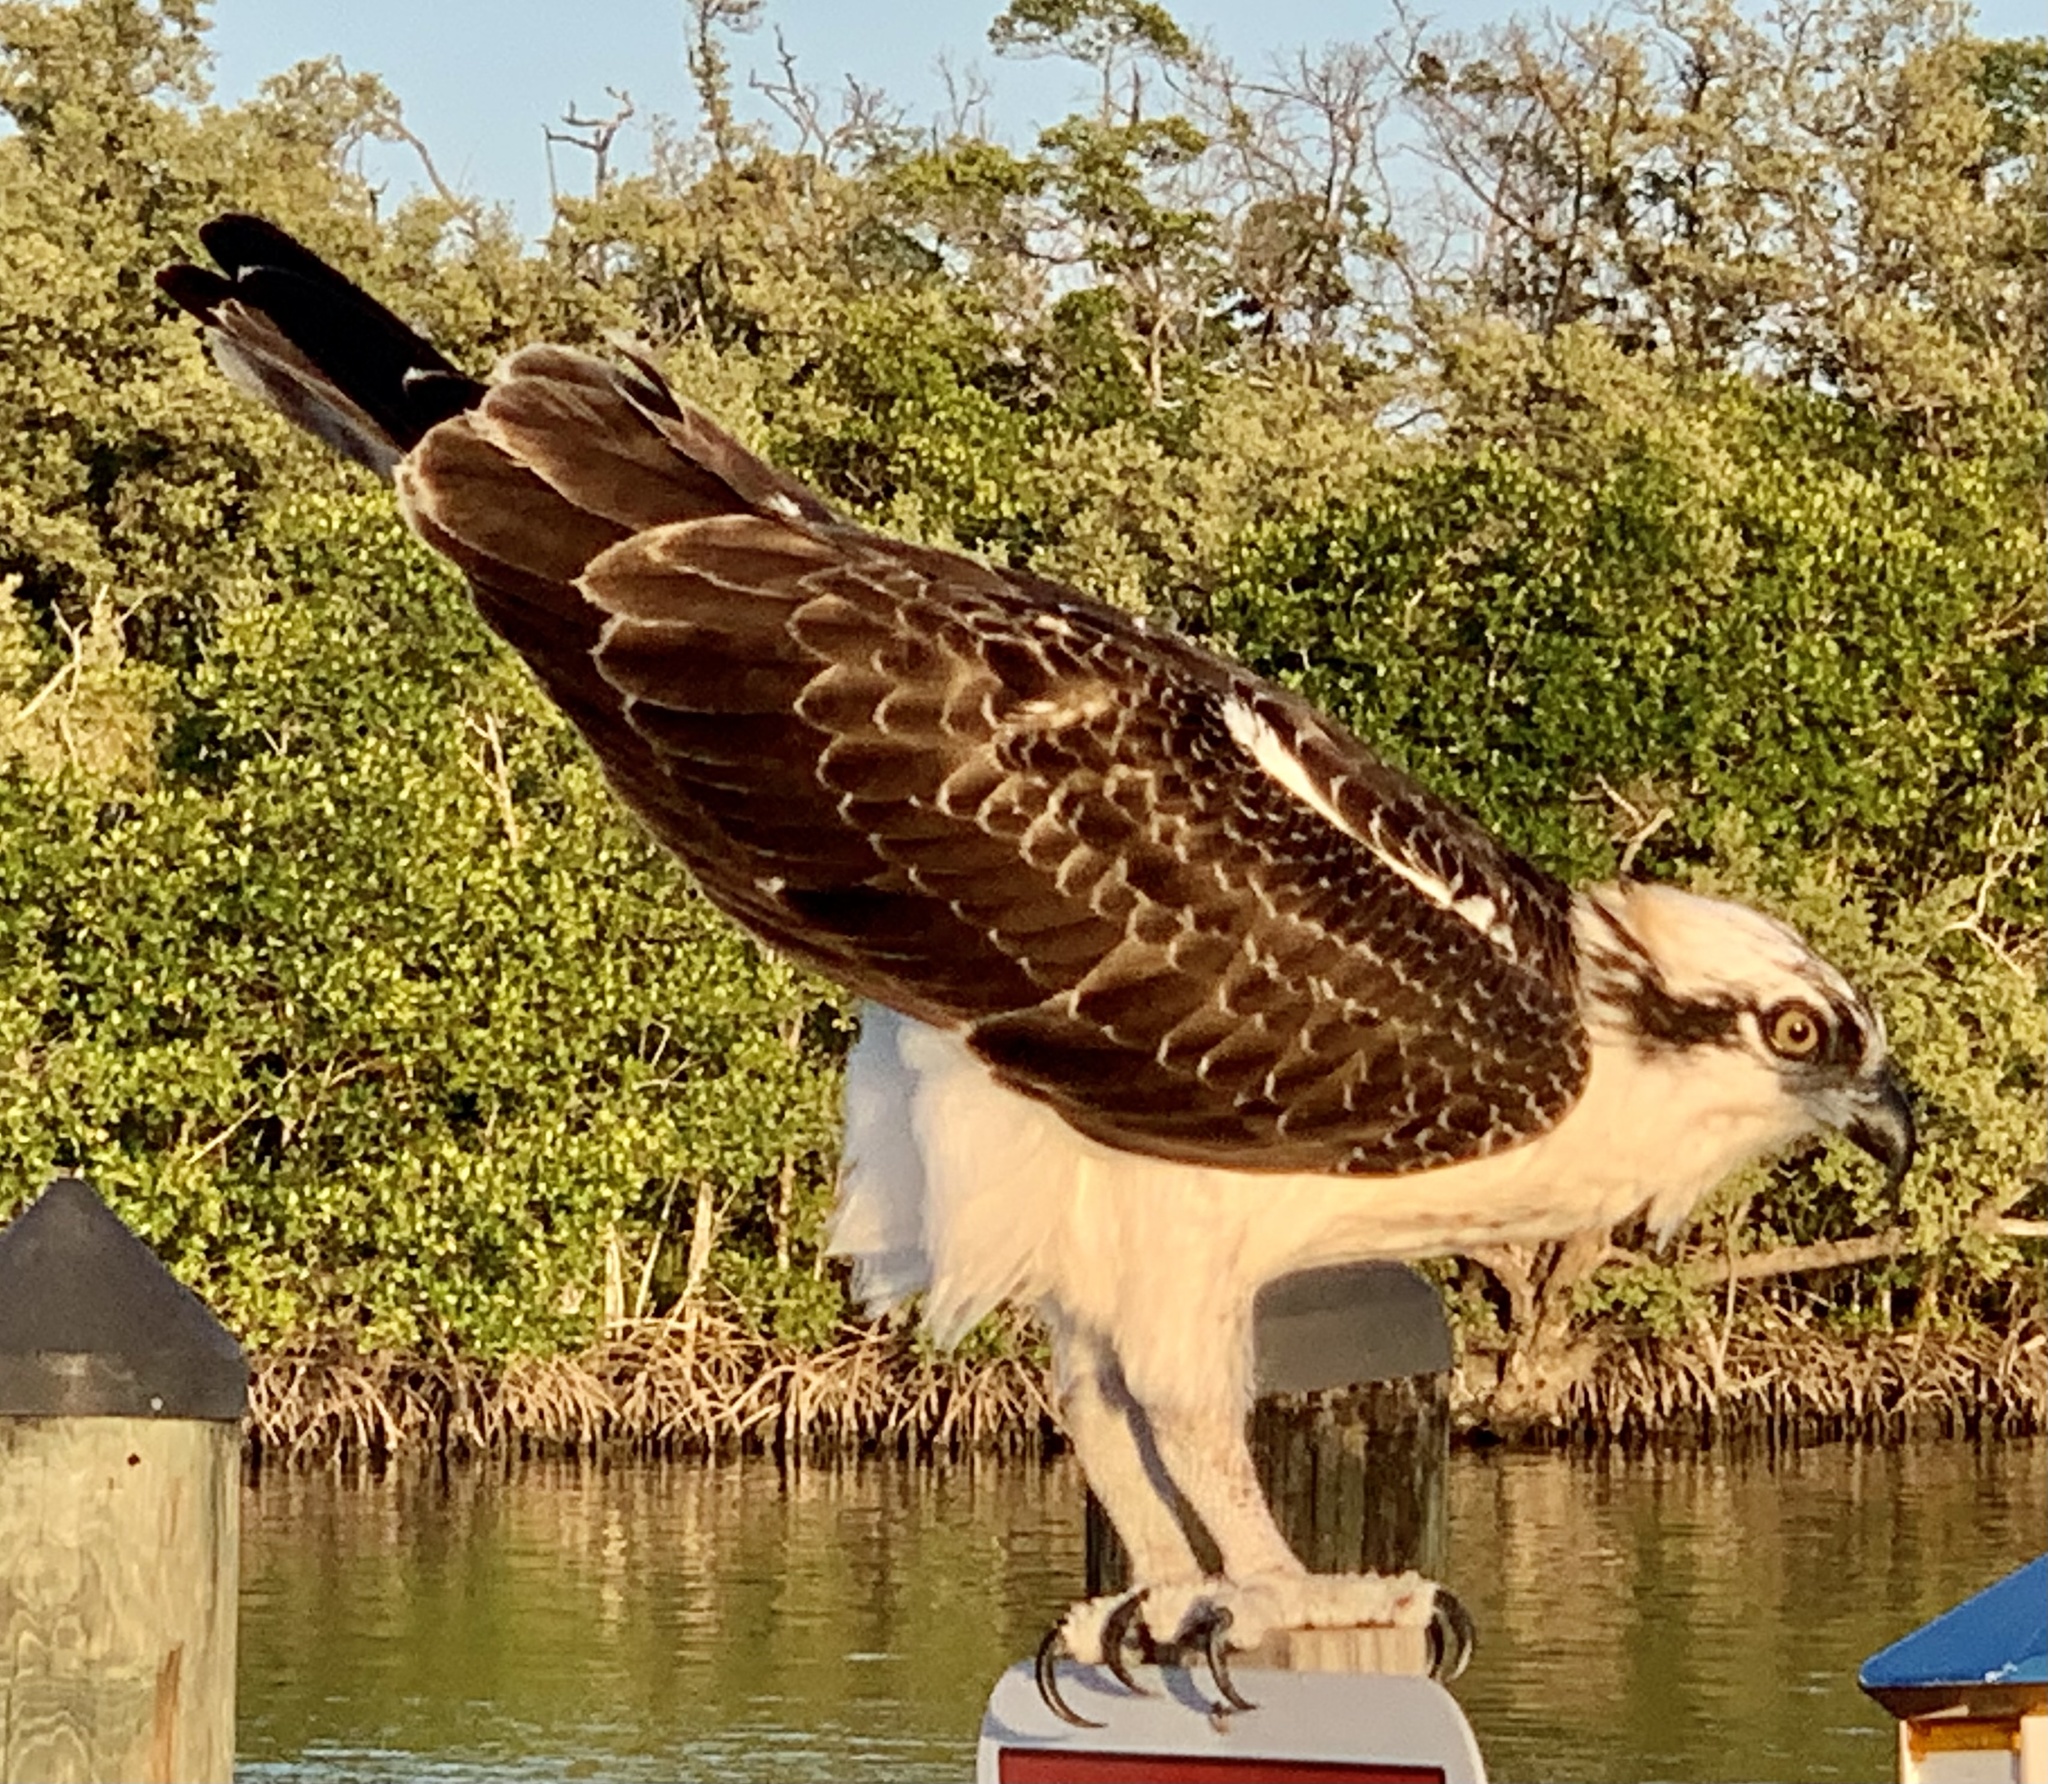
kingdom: Animalia
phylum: Chordata
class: Aves
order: Accipitriformes
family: Pandionidae
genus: Pandion
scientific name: Pandion haliaetus
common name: Osprey
